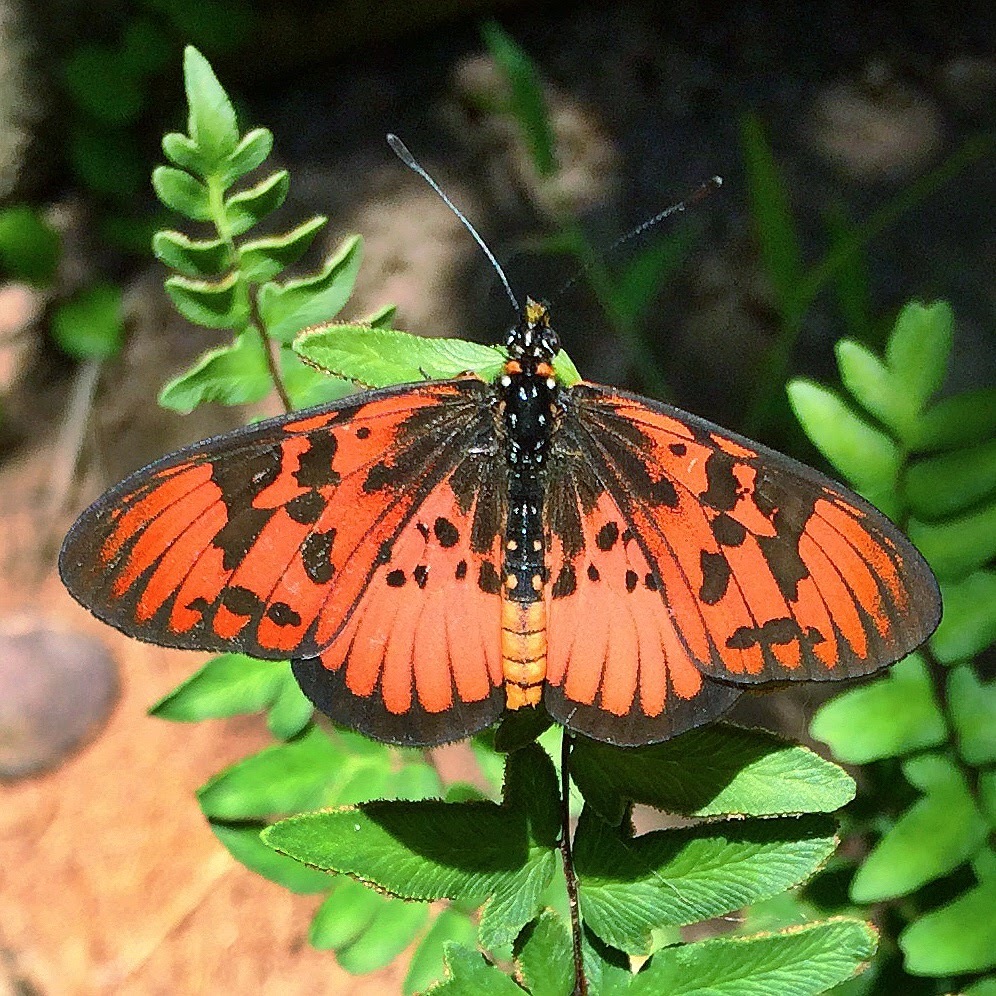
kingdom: Animalia
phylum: Arthropoda
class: Insecta
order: Lepidoptera
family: Nymphalidae
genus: Rubraea
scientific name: Rubraea
